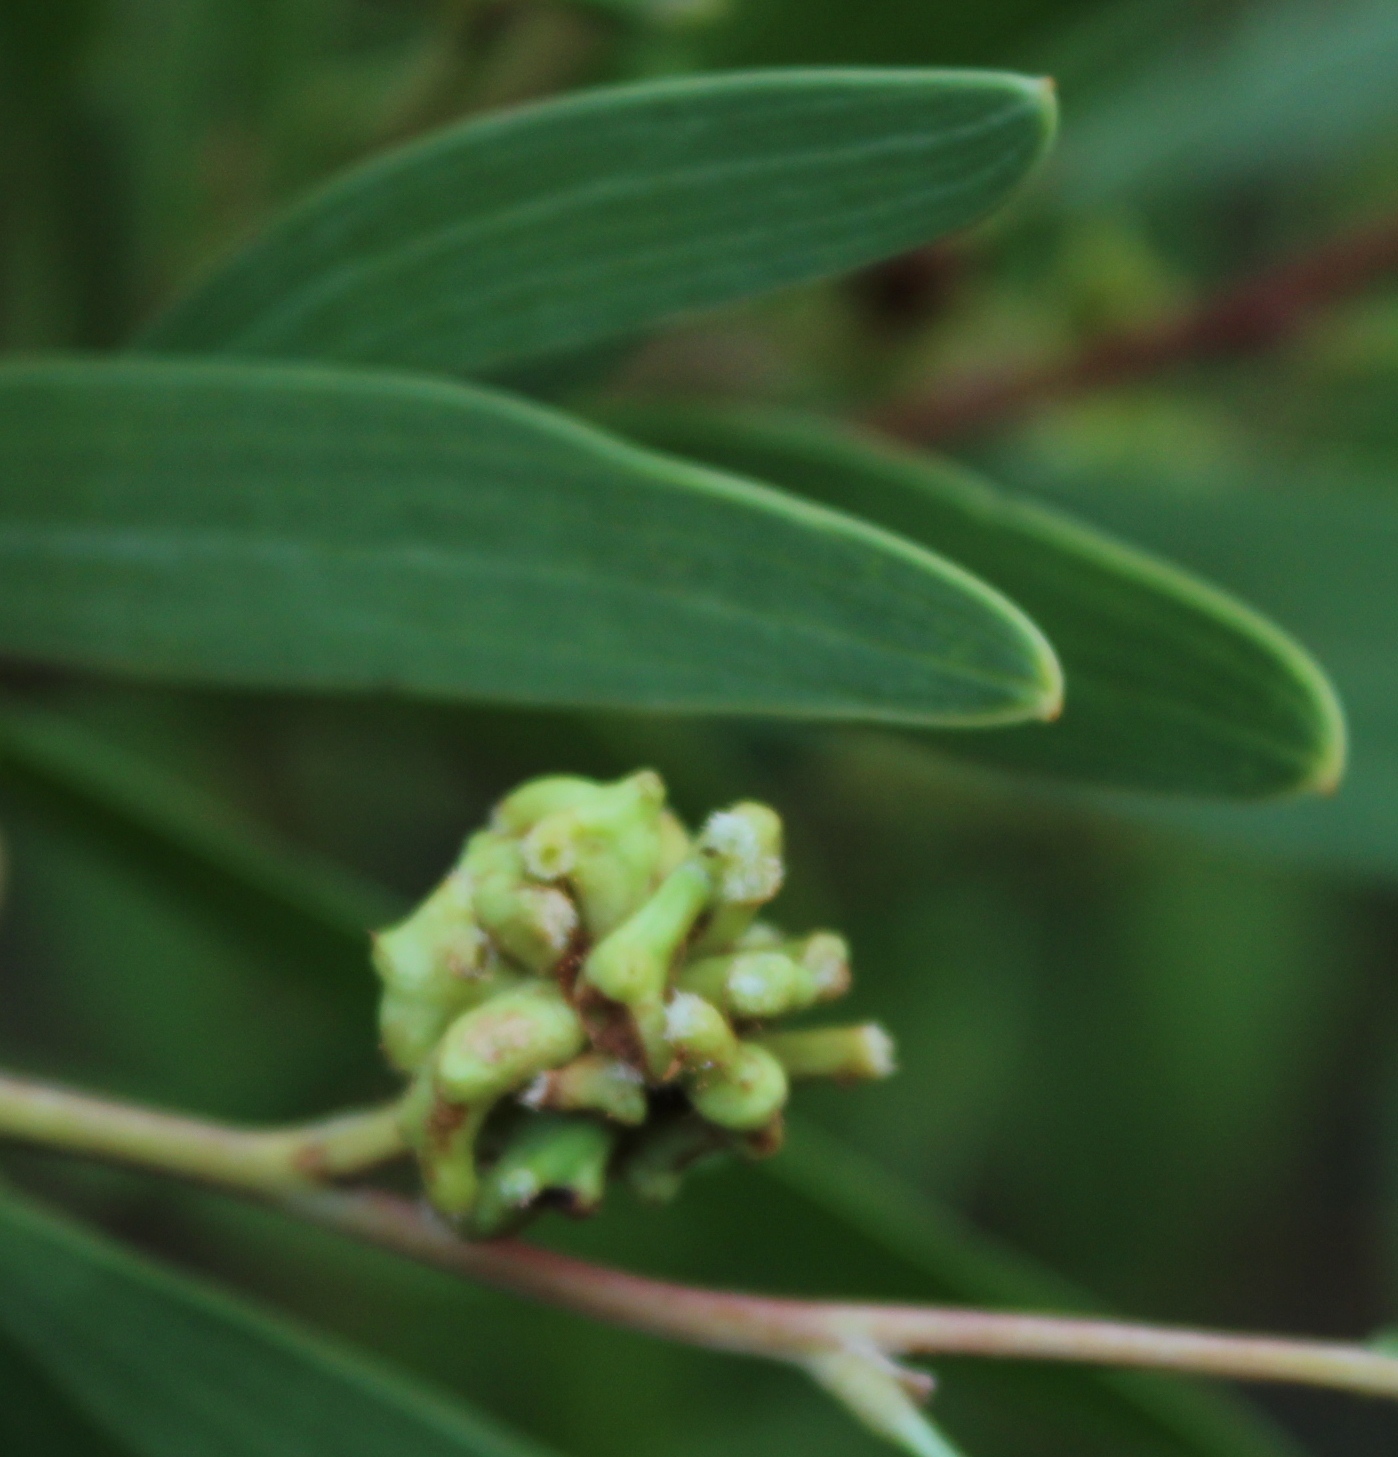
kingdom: Animalia
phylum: Arthropoda
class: Insecta
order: Diptera
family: Cecidomyiidae
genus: Dasineura
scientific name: Dasineura dielsi
